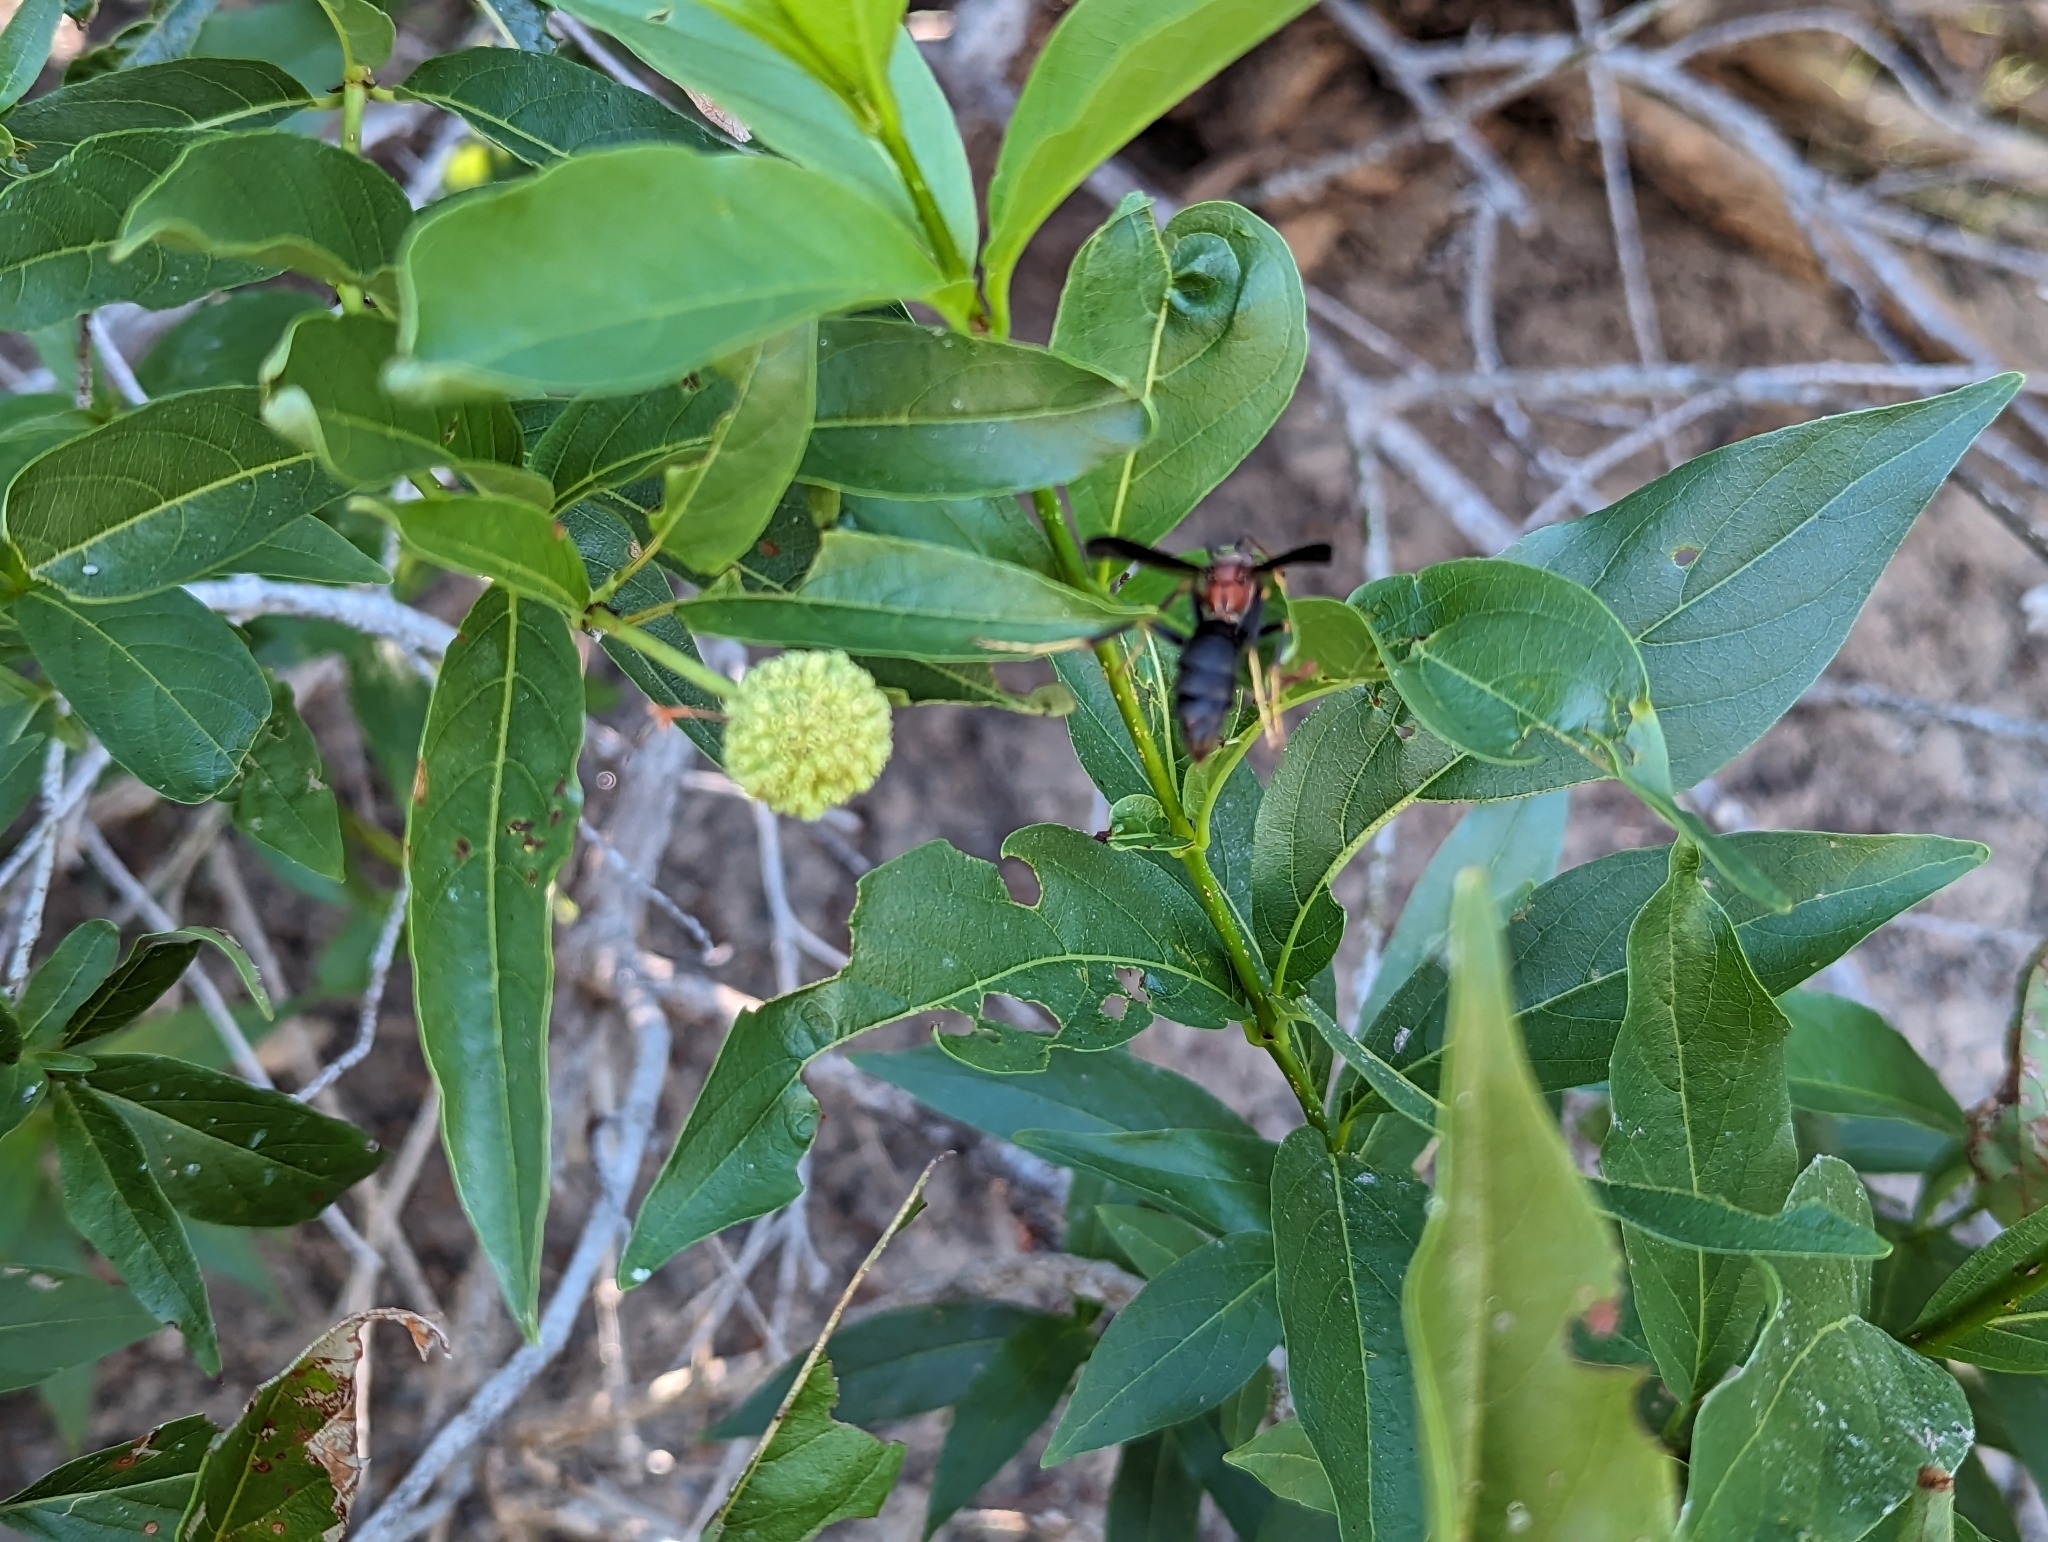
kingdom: Animalia
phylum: Arthropoda
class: Insecta
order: Hymenoptera
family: Eumenidae
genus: Polistes
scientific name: Polistes metricus
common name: Metric paper wasp
